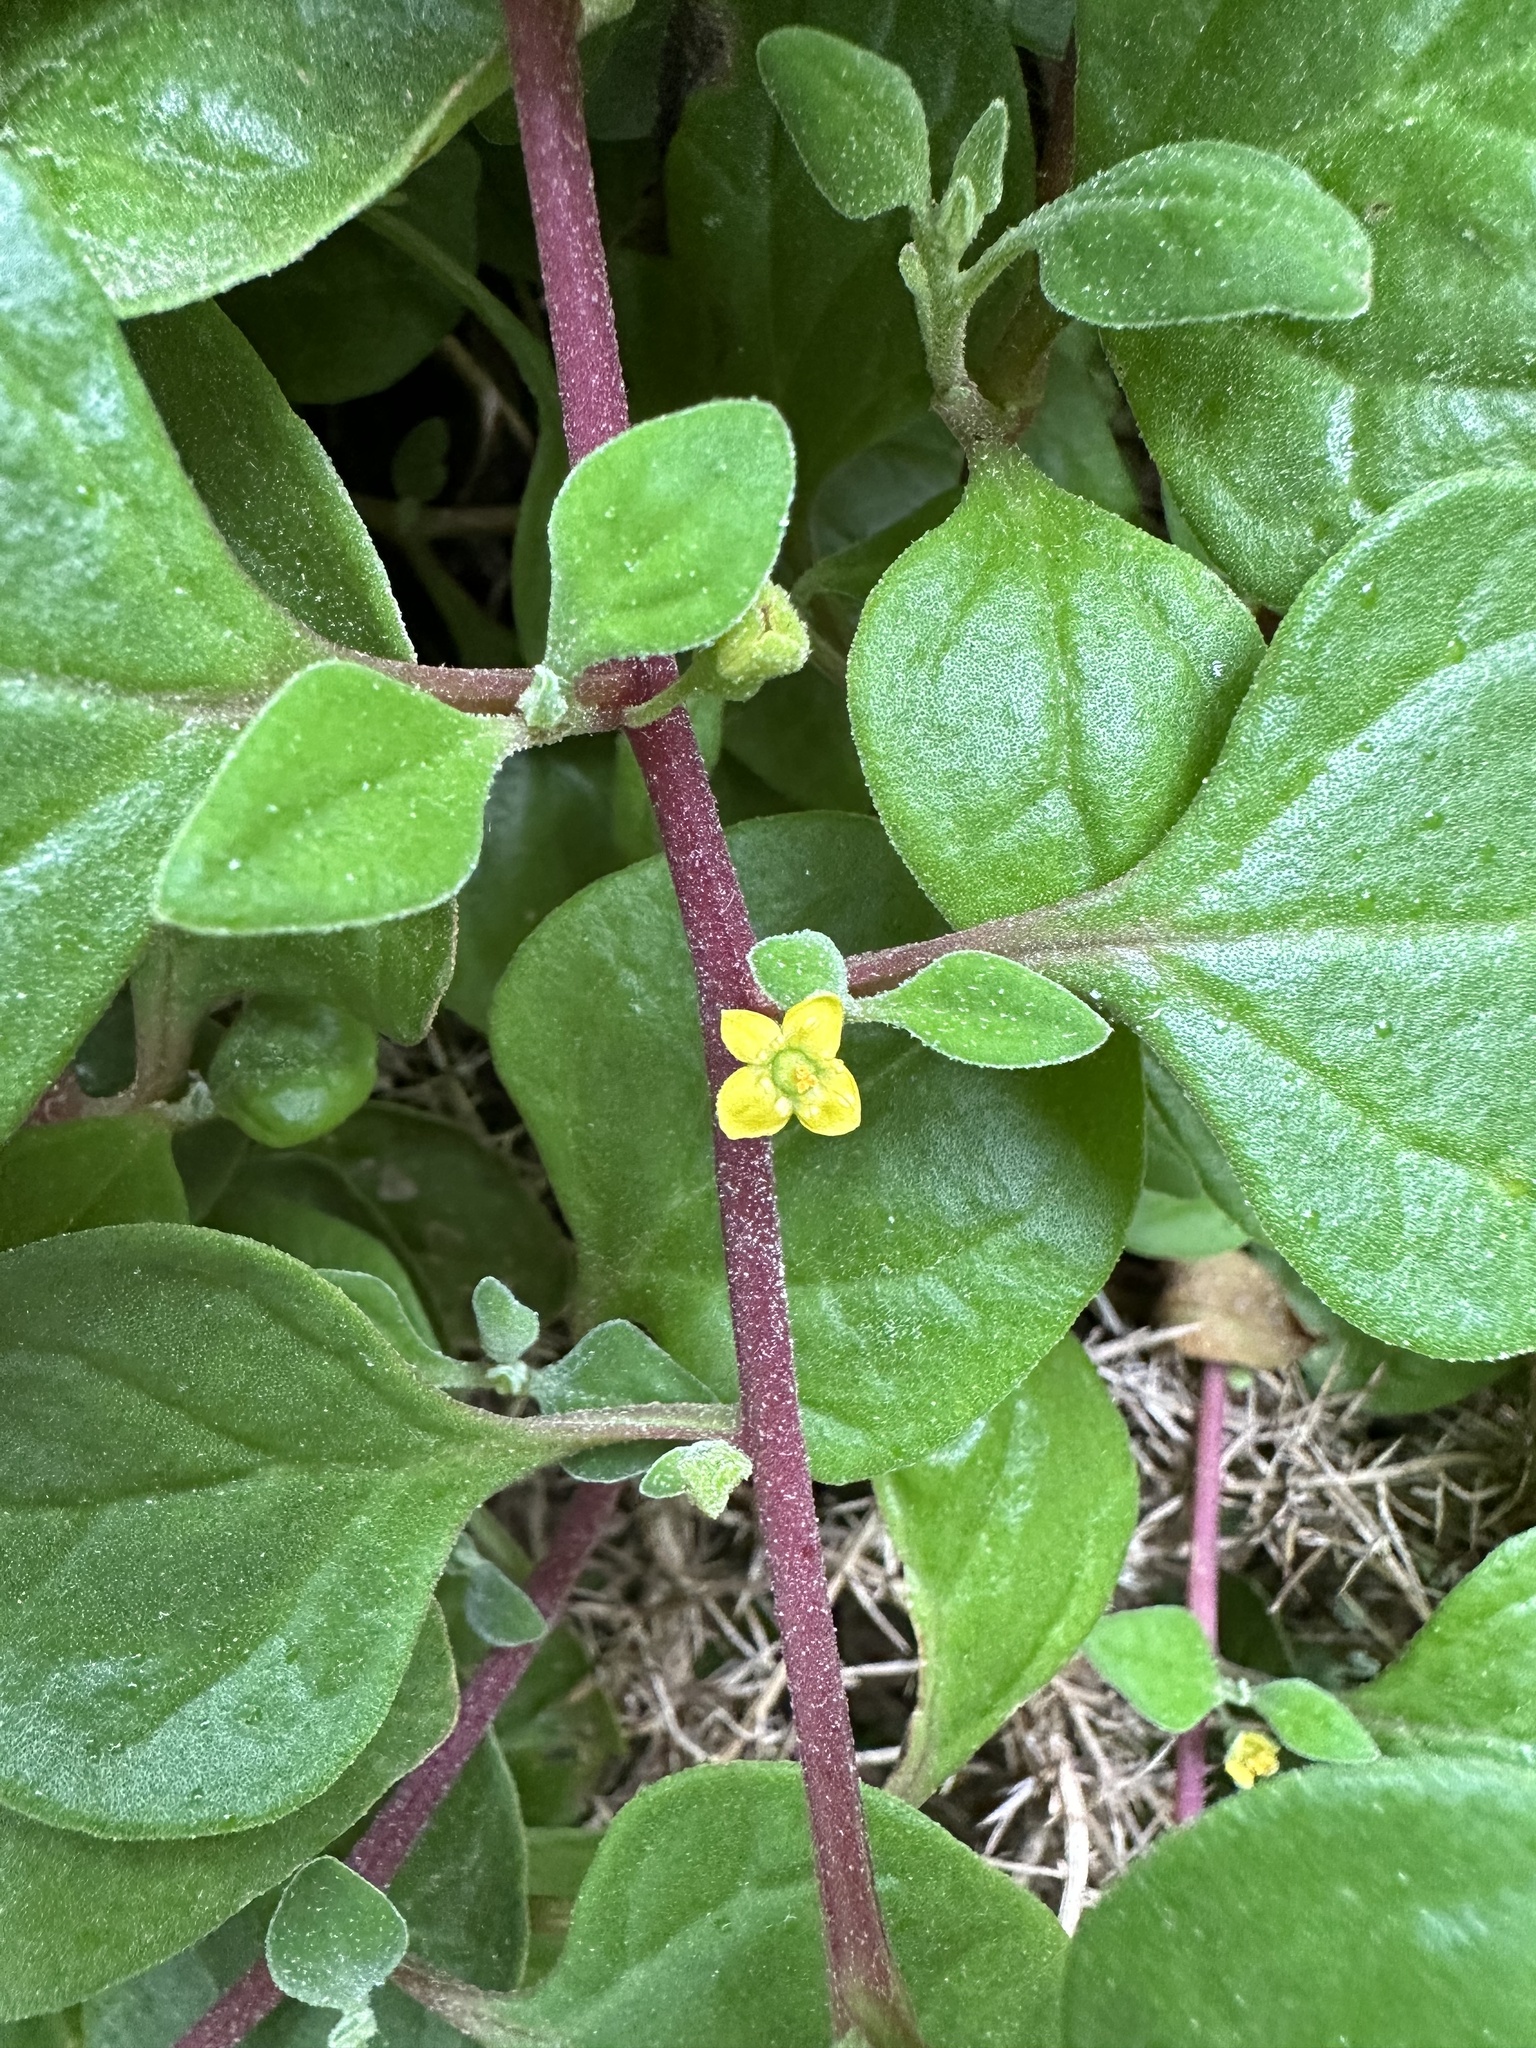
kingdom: Plantae
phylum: Tracheophyta
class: Magnoliopsida
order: Caryophyllales
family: Aizoaceae
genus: Tetragonia
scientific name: Tetragonia implexicoma
